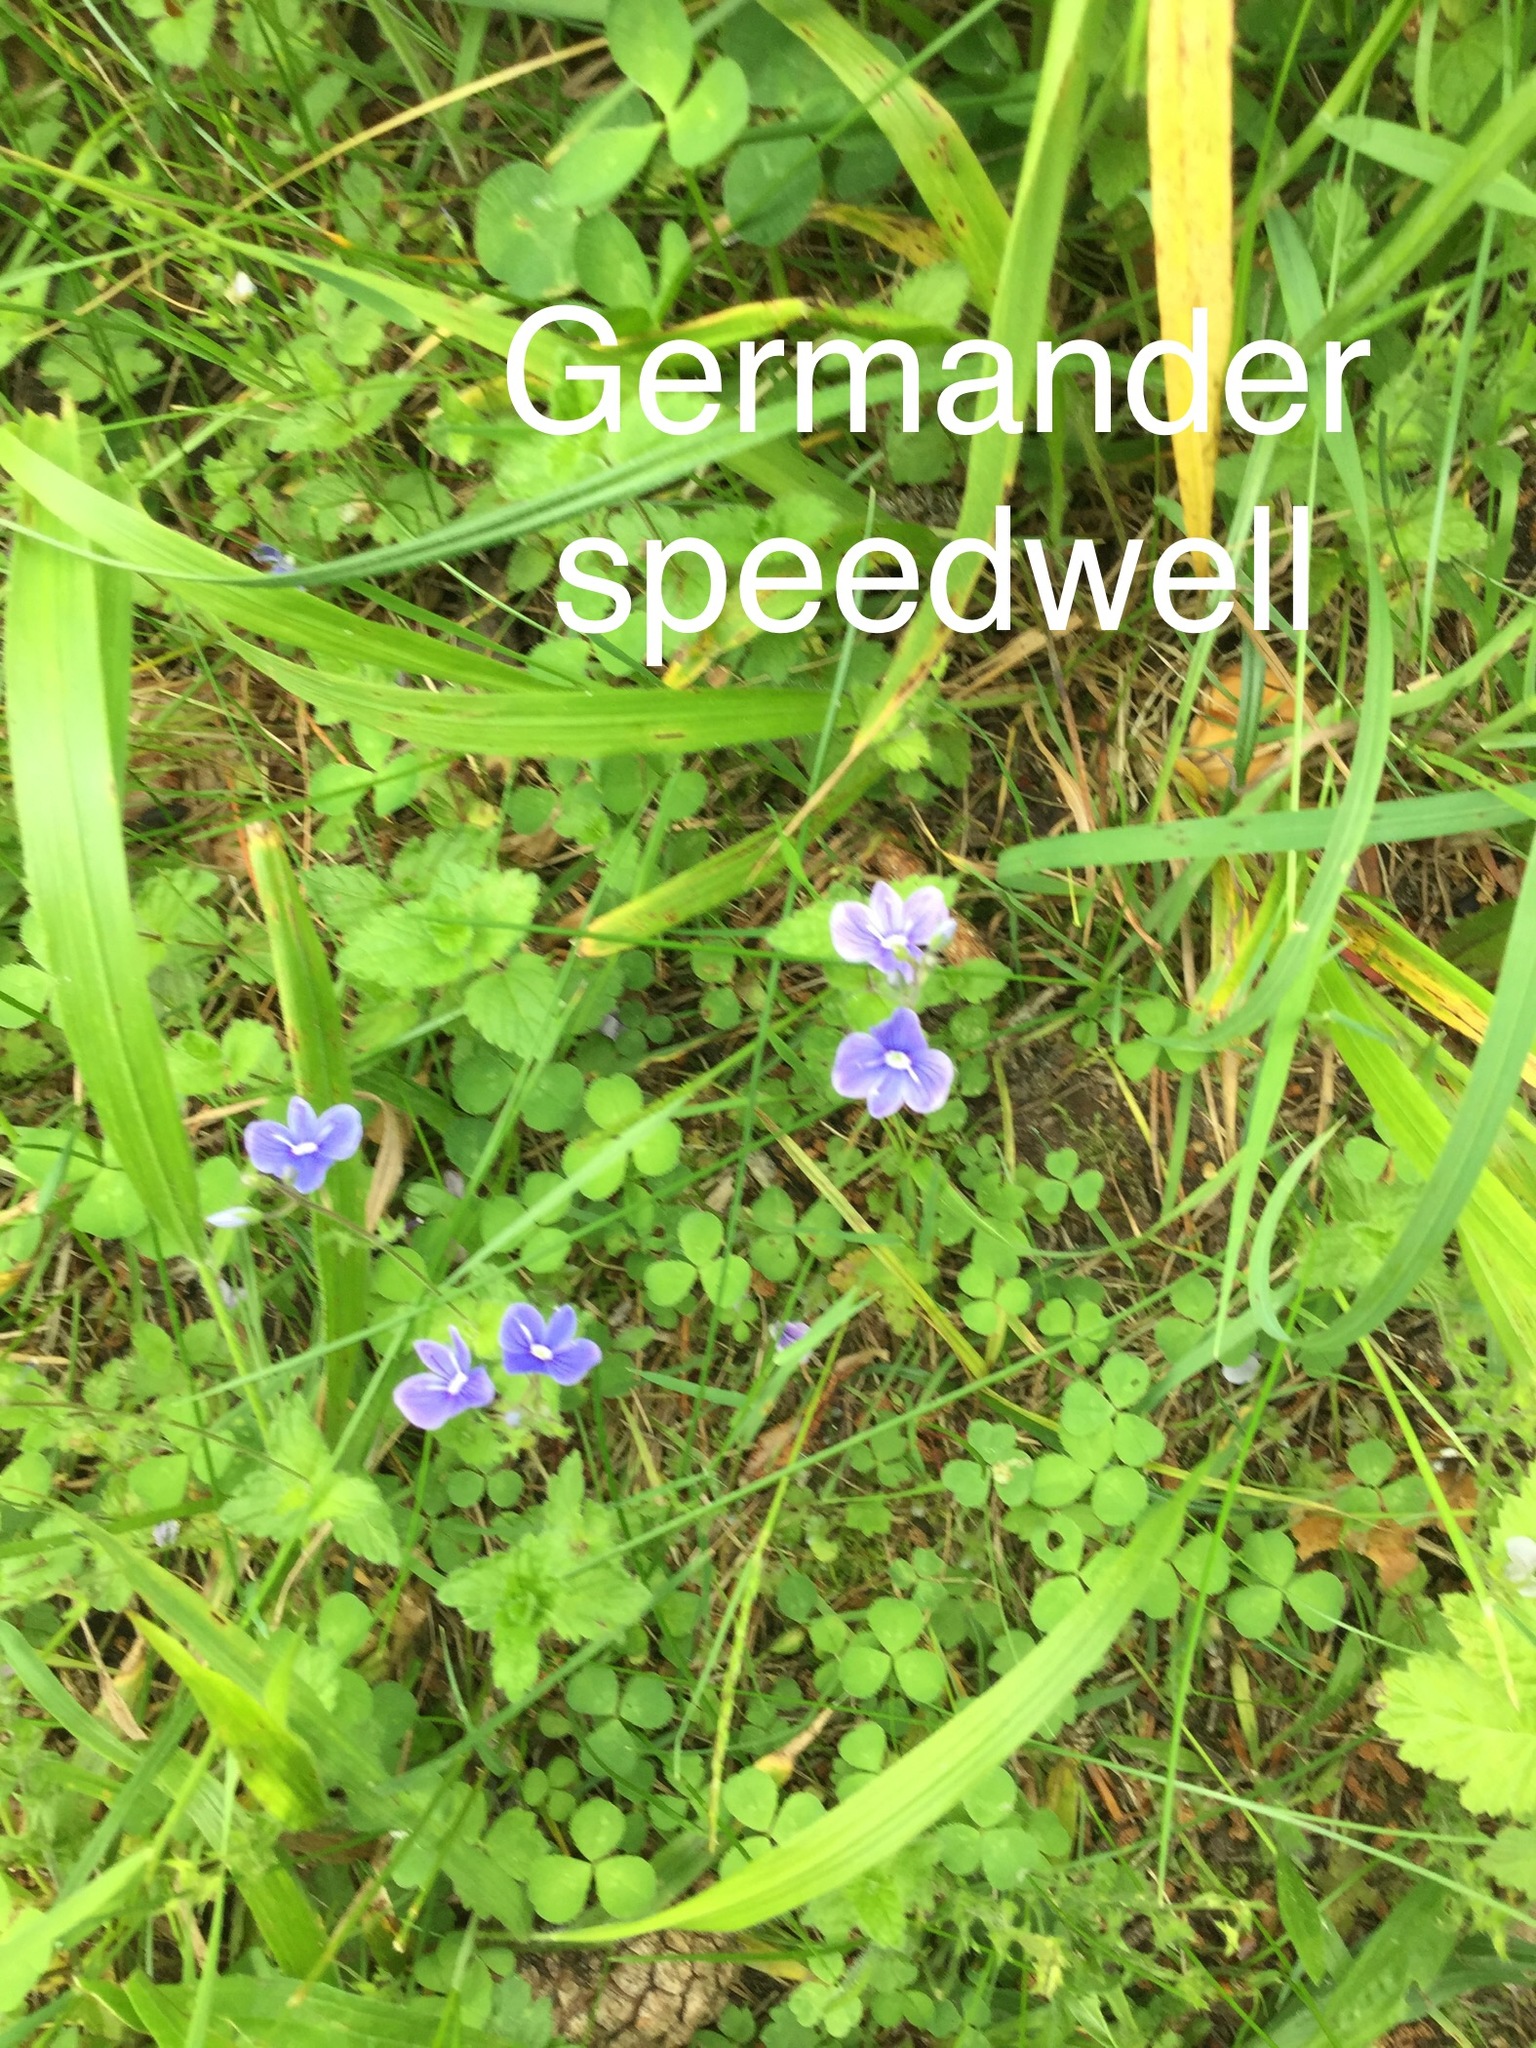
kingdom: Plantae
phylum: Tracheophyta
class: Magnoliopsida
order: Lamiales
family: Plantaginaceae
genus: Veronica
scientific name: Veronica chamaedrys
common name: Germander speedwell
